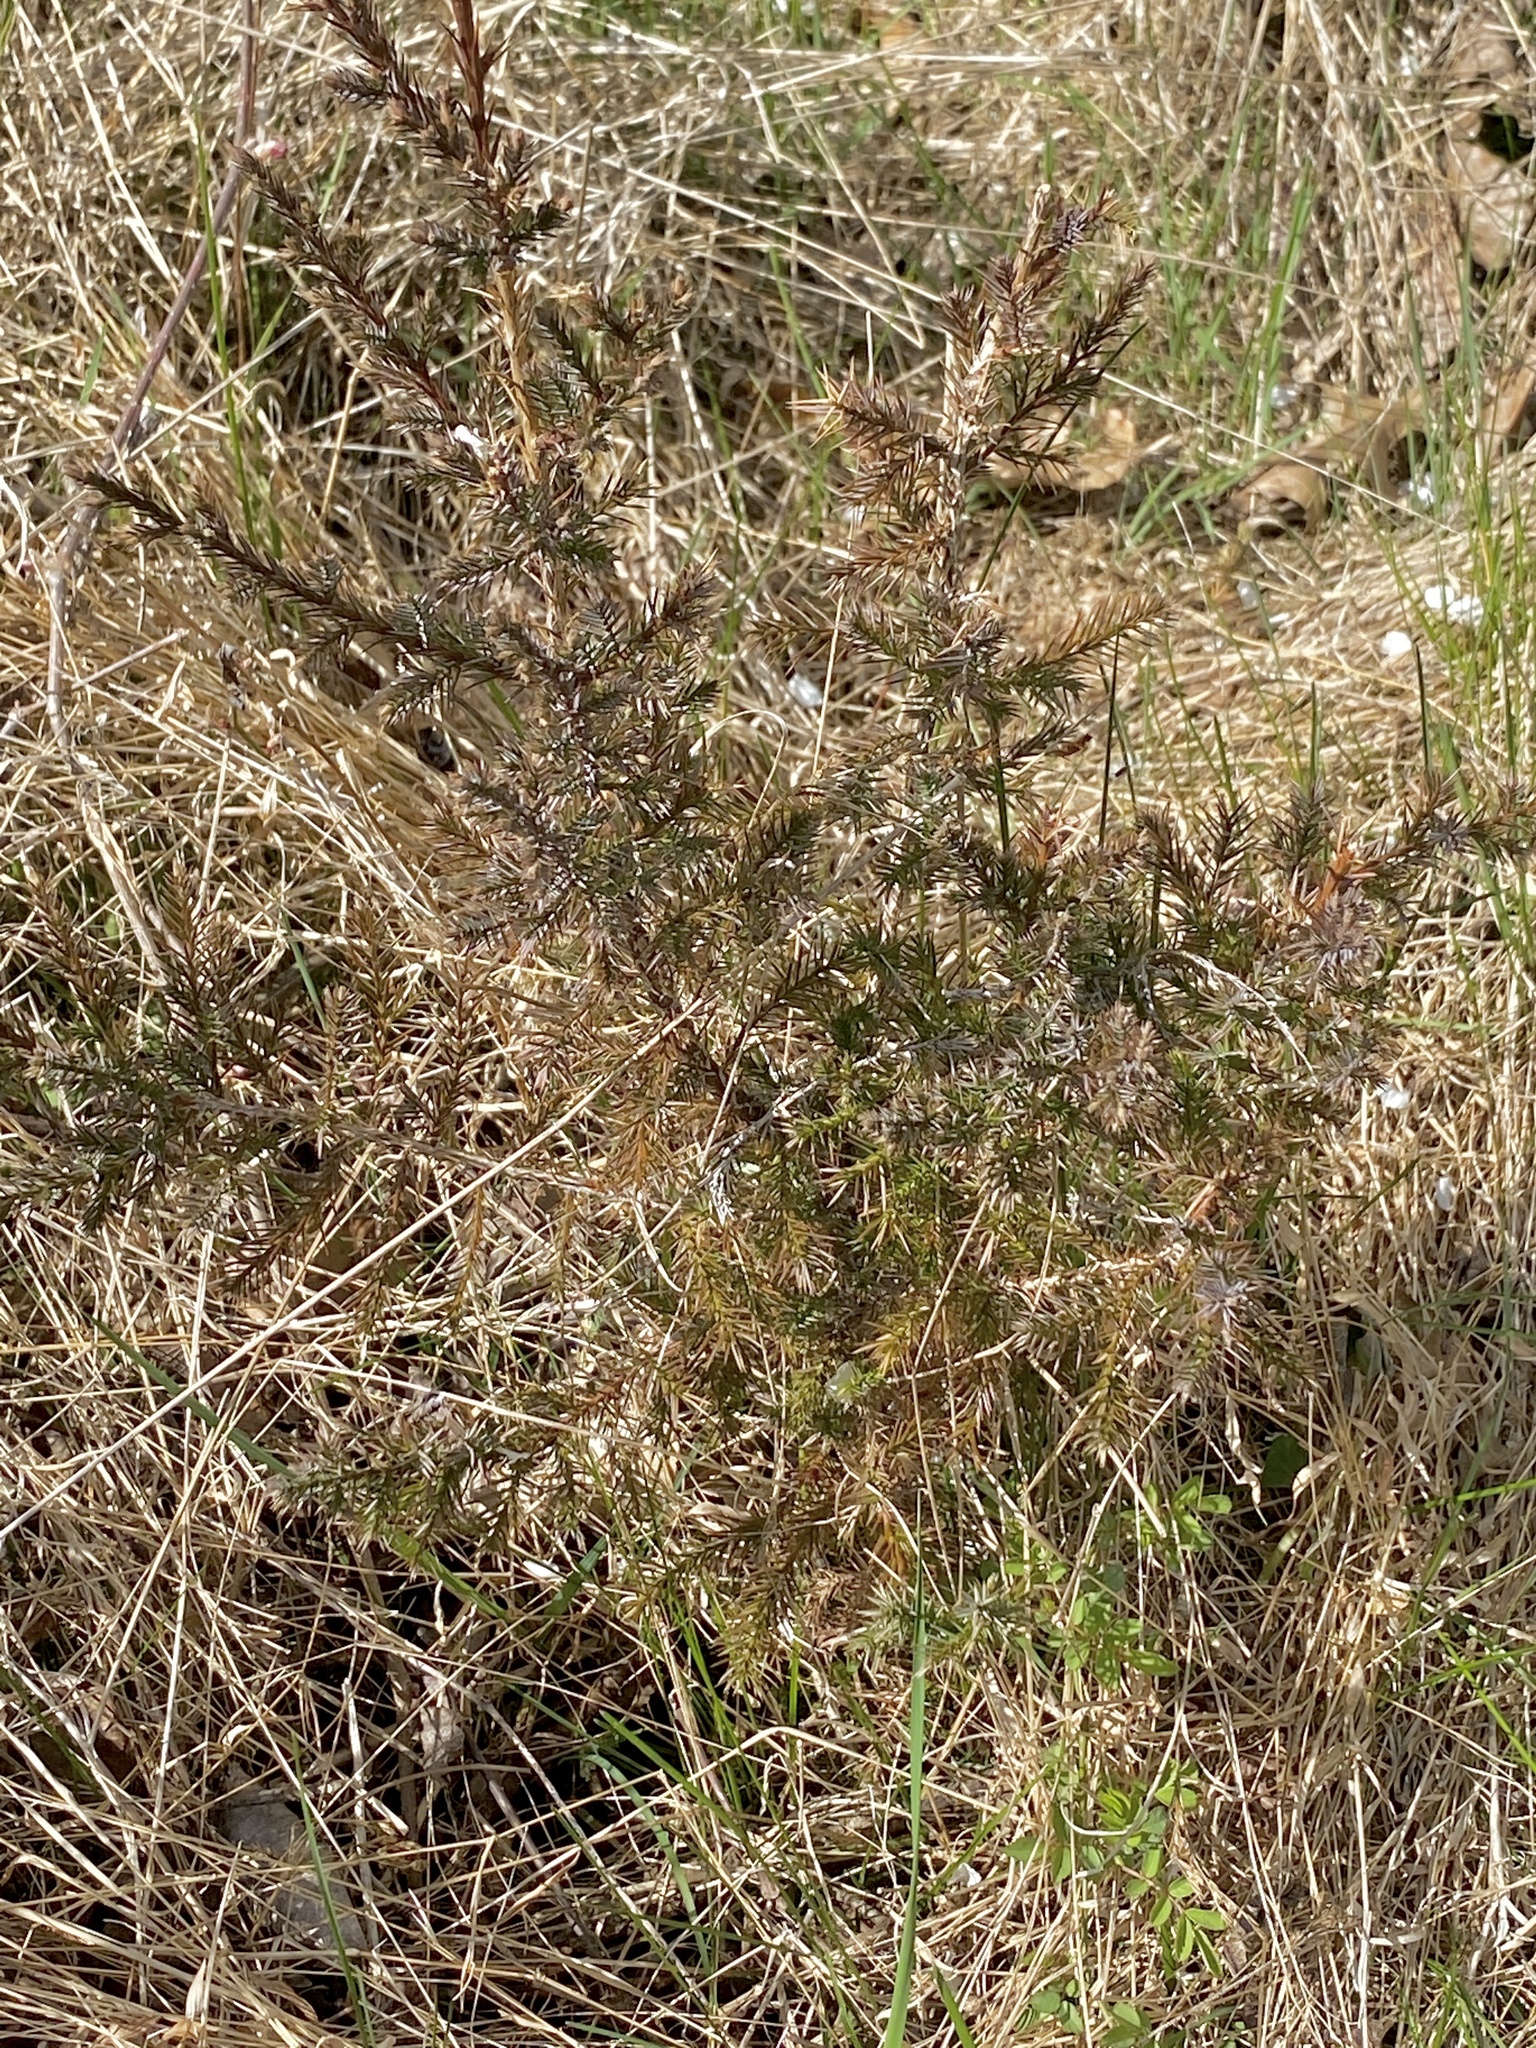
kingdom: Plantae
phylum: Tracheophyta
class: Pinopsida
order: Pinales
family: Cupressaceae
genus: Juniperus
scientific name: Juniperus virginiana
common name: Red juniper
